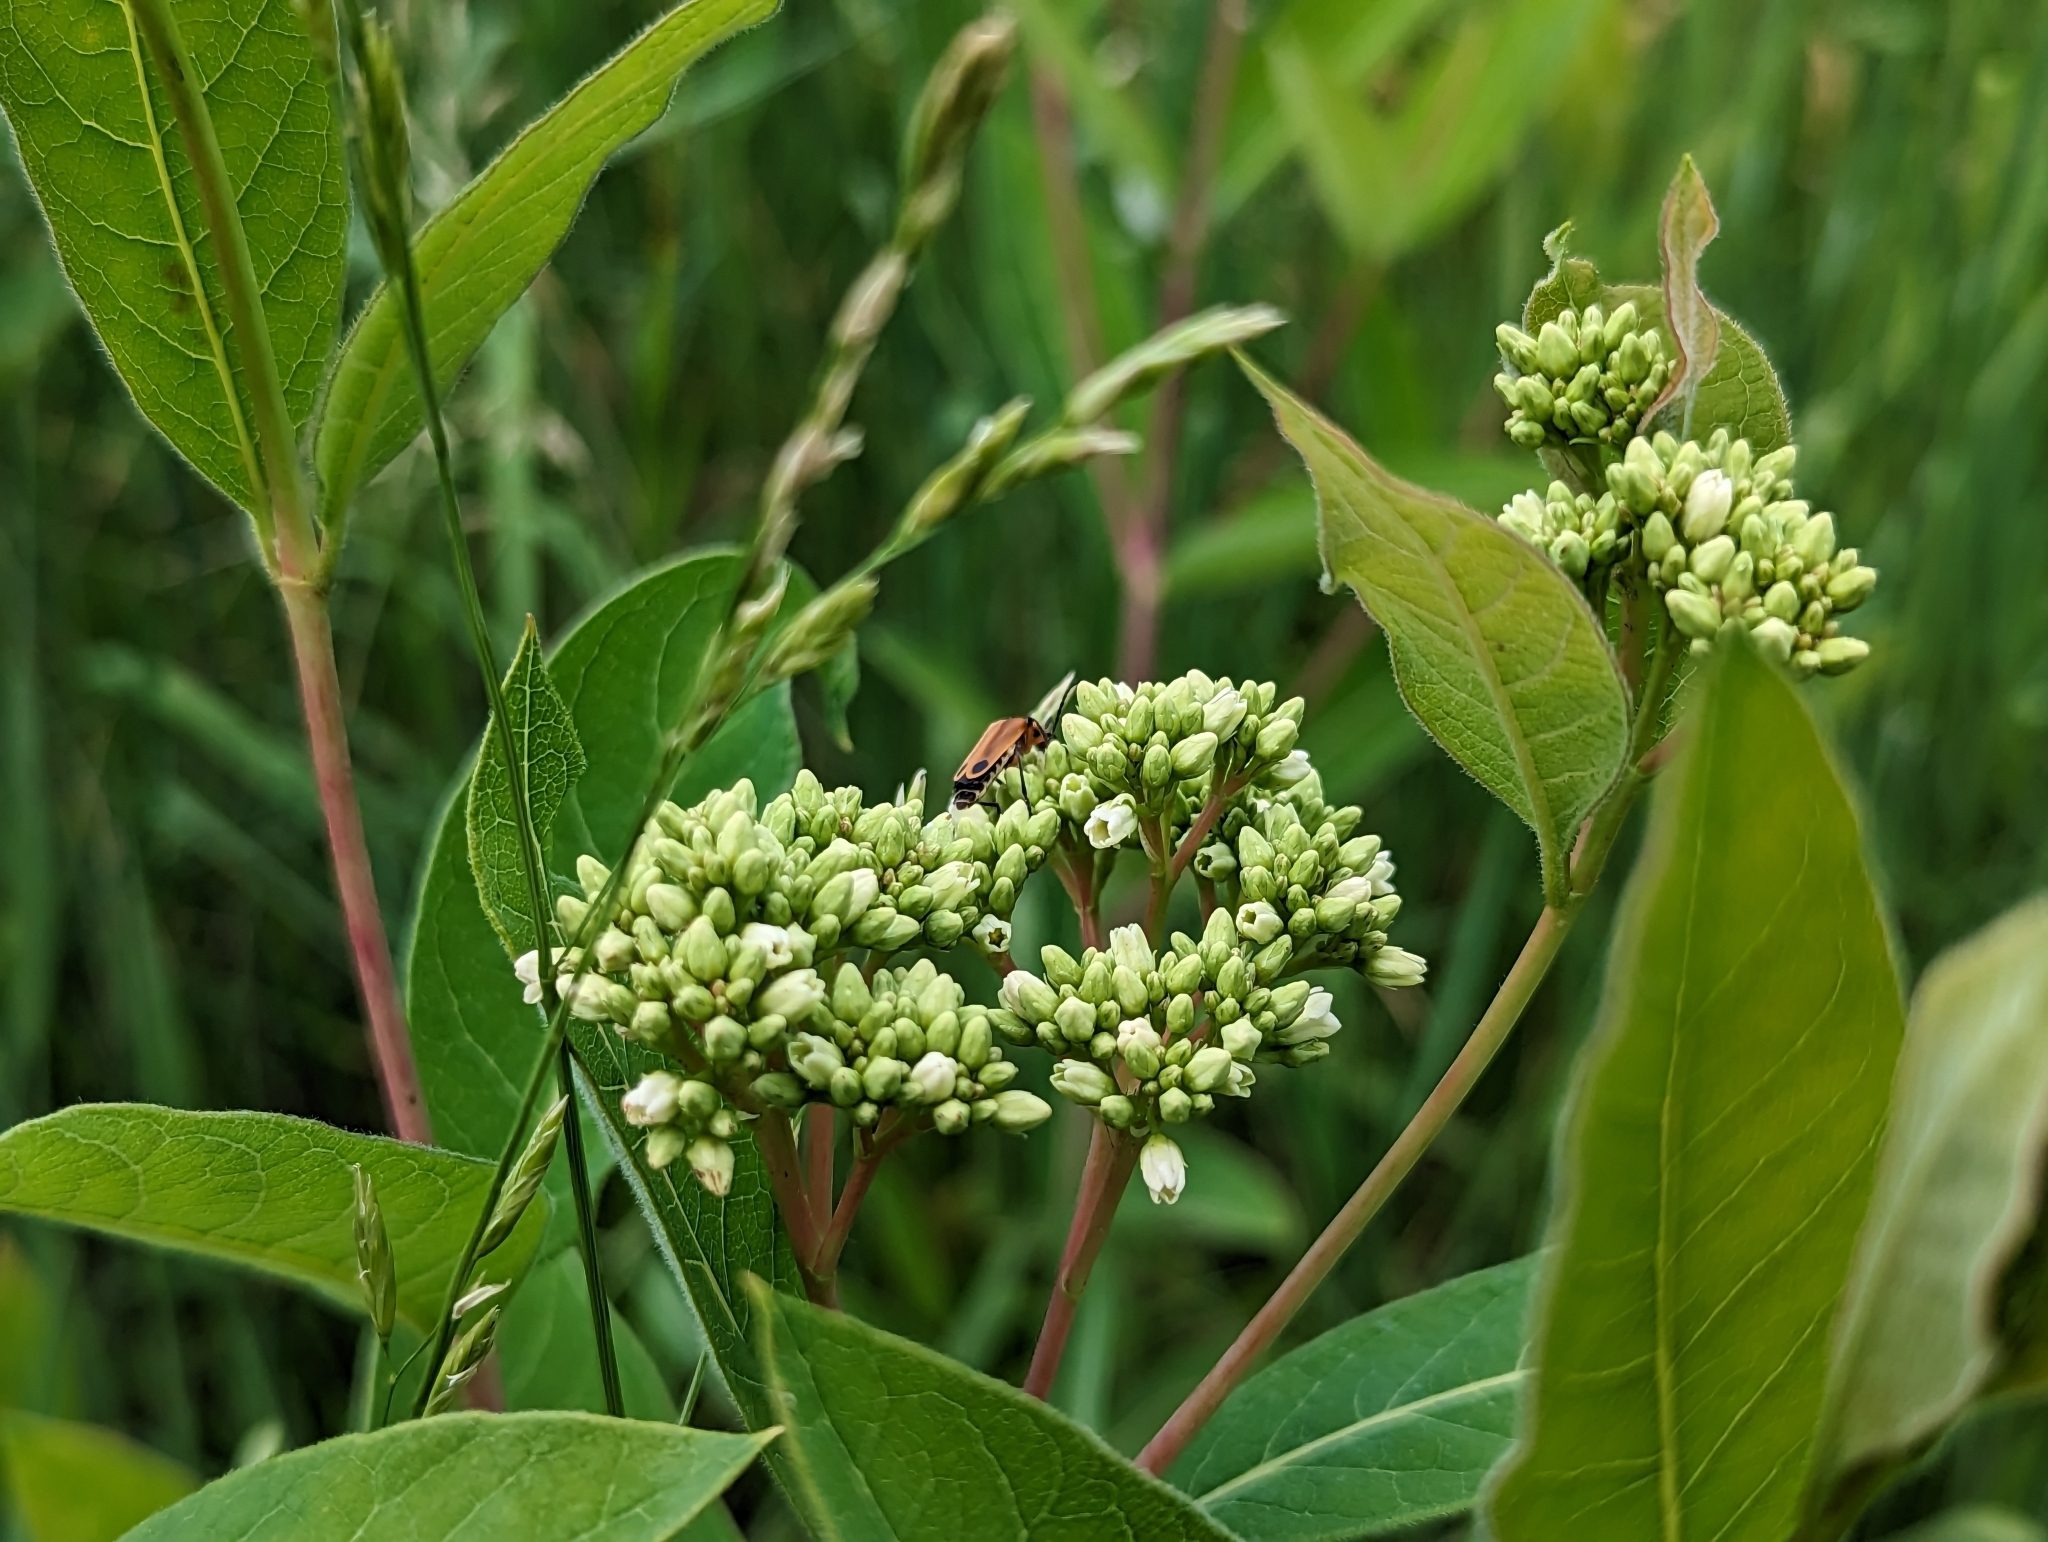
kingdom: Plantae
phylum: Tracheophyta
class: Magnoliopsida
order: Gentianales
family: Apocynaceae
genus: Apocynum
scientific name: Apocynum cannabinum
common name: Hemp dogbane
